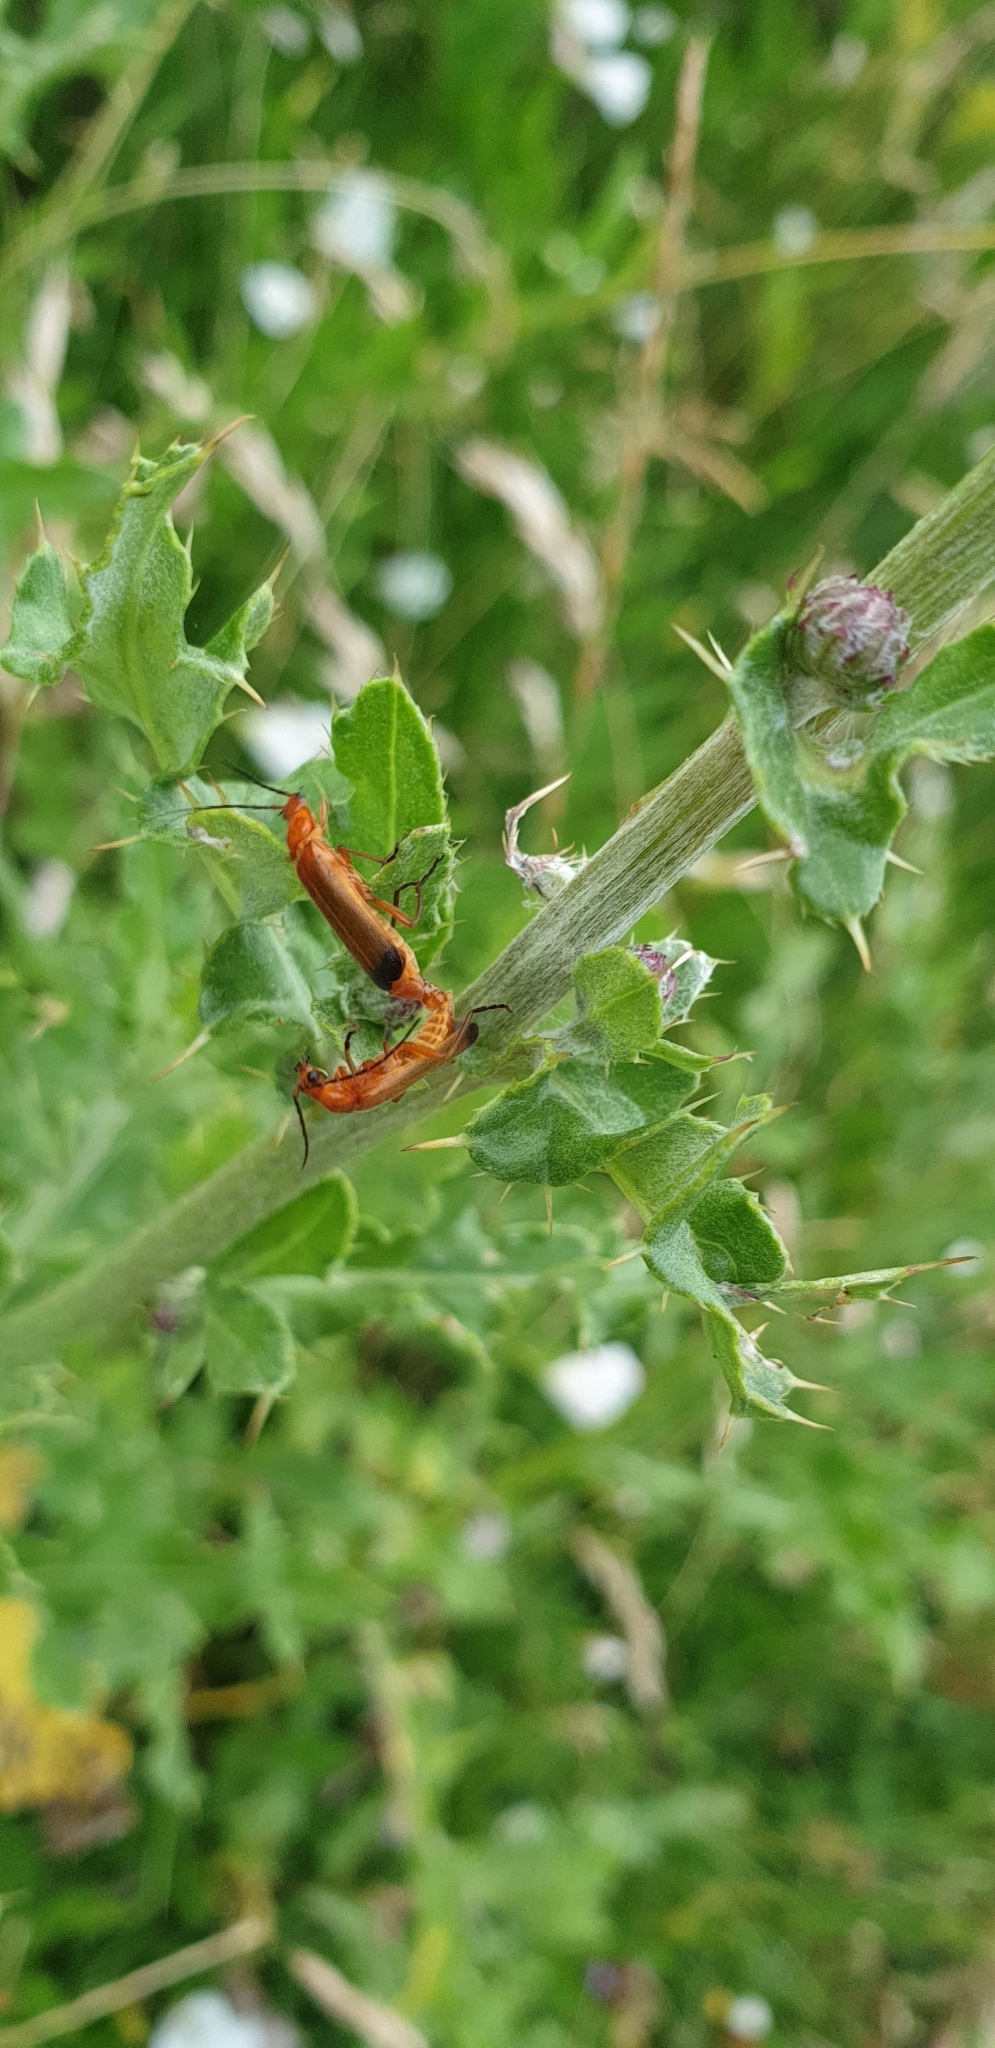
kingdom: Animalia
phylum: Arthropoda
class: Insecta
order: Coleoptera
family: Cantharidae
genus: Rhagonycha
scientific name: Rhagonycha fulva
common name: Common red soldier beetle
